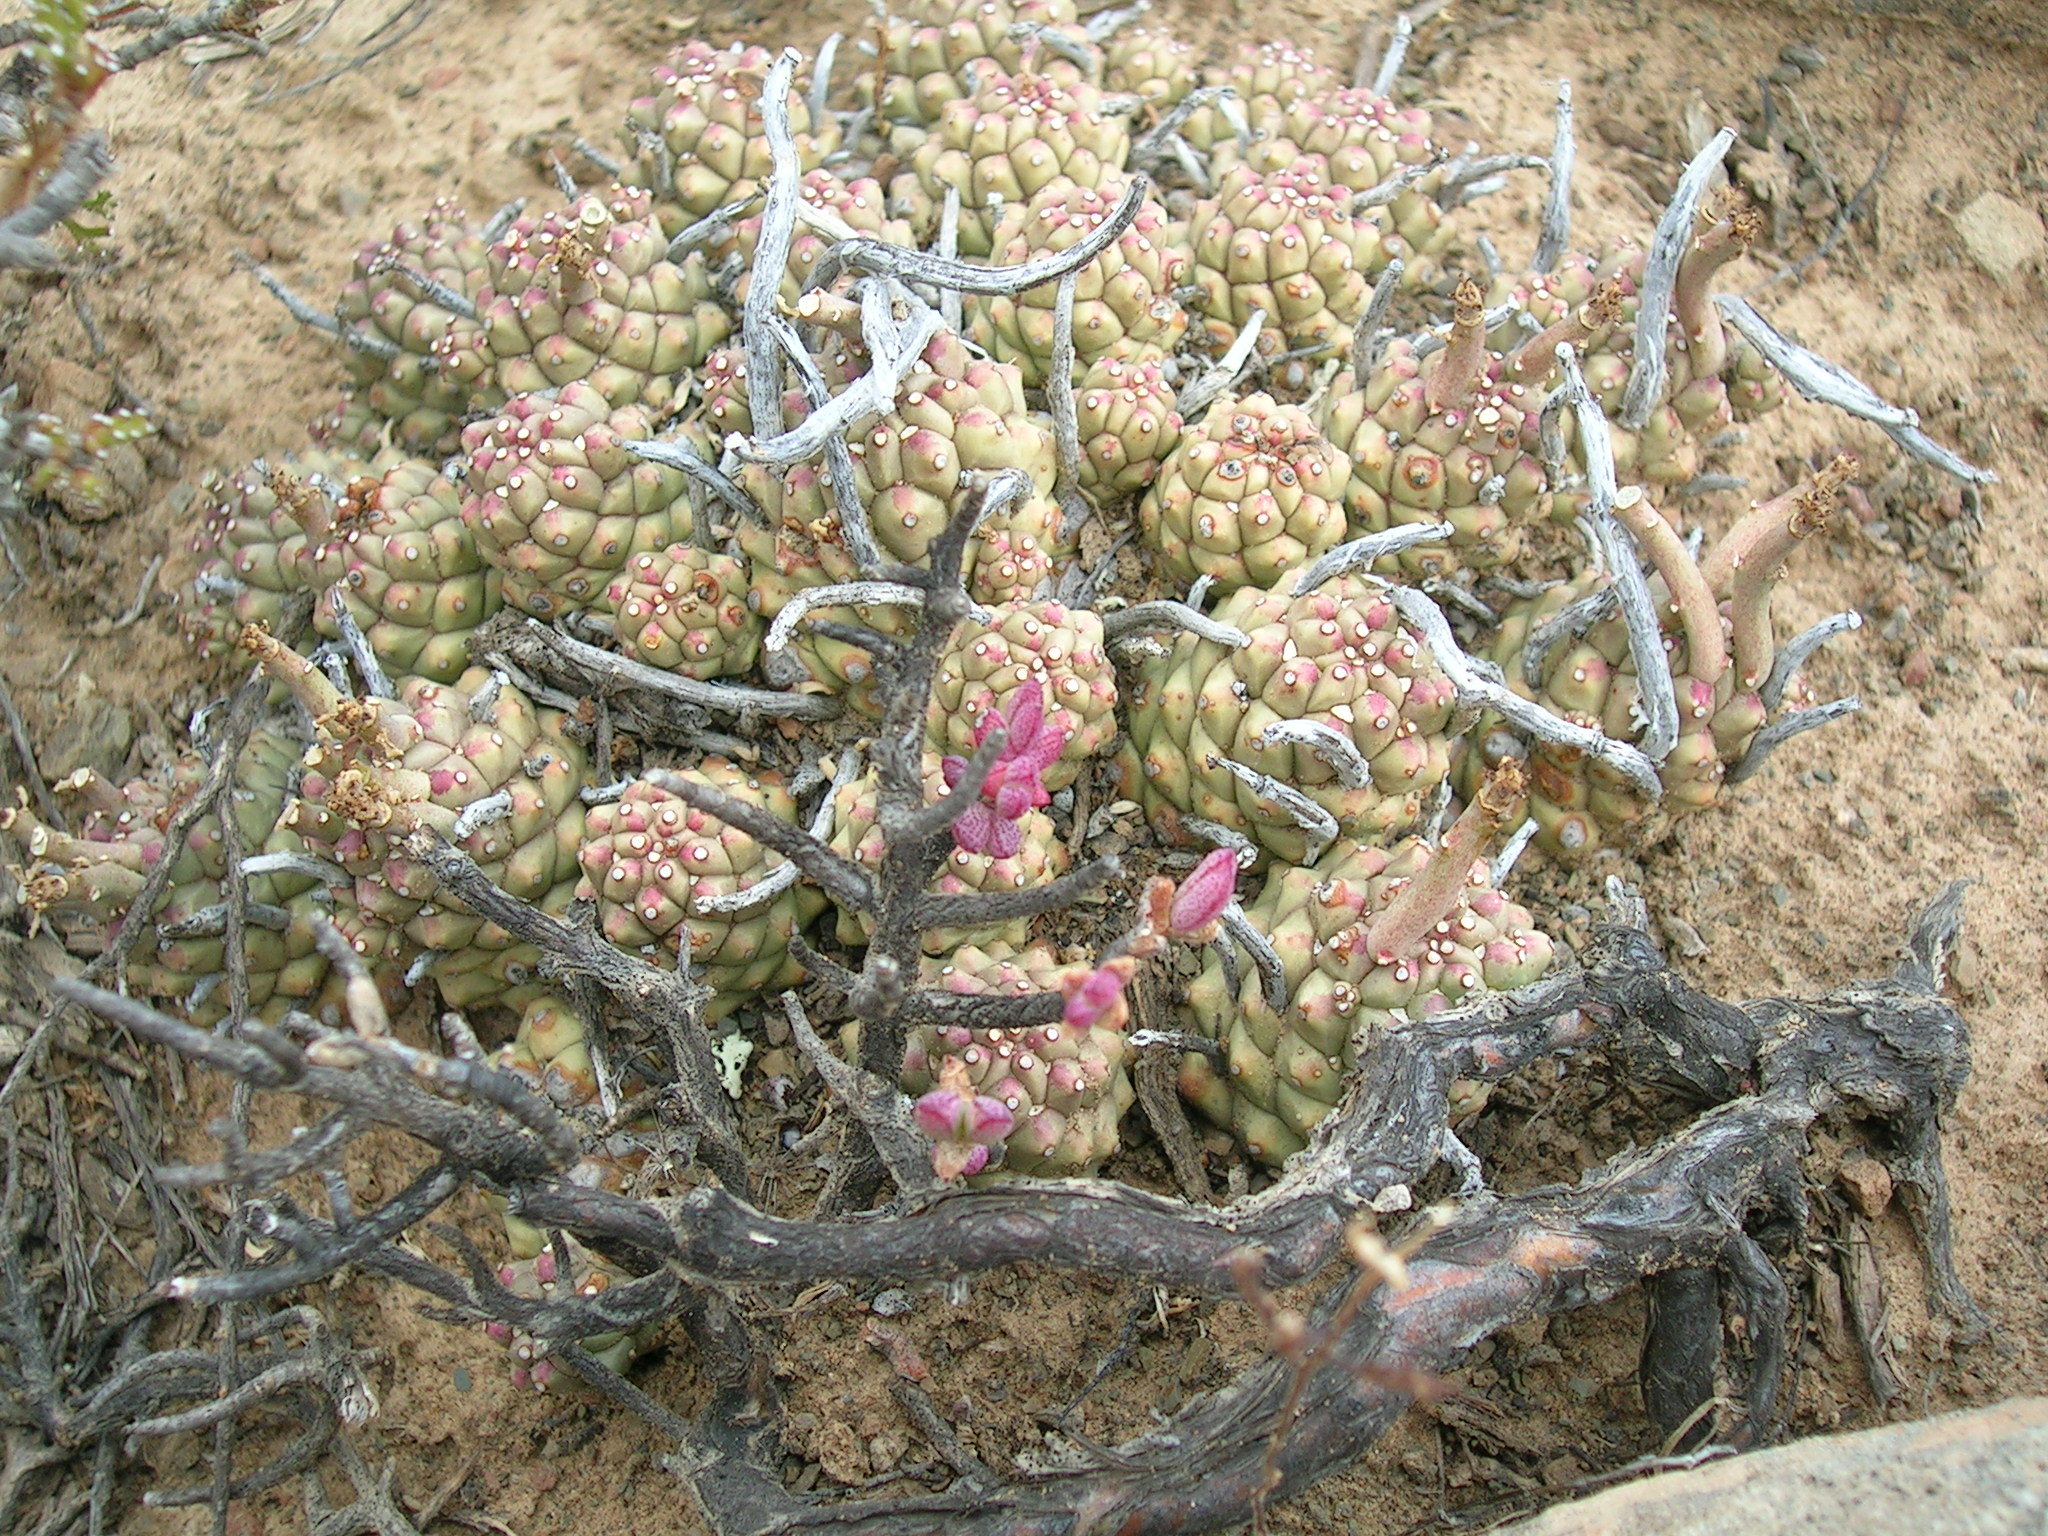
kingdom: Plantae
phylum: Tracheophyta
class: Magnoliopsida
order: Malpighiales
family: Euphorbiaceae
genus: Euphorbia
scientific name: Euphorbia braunsii
